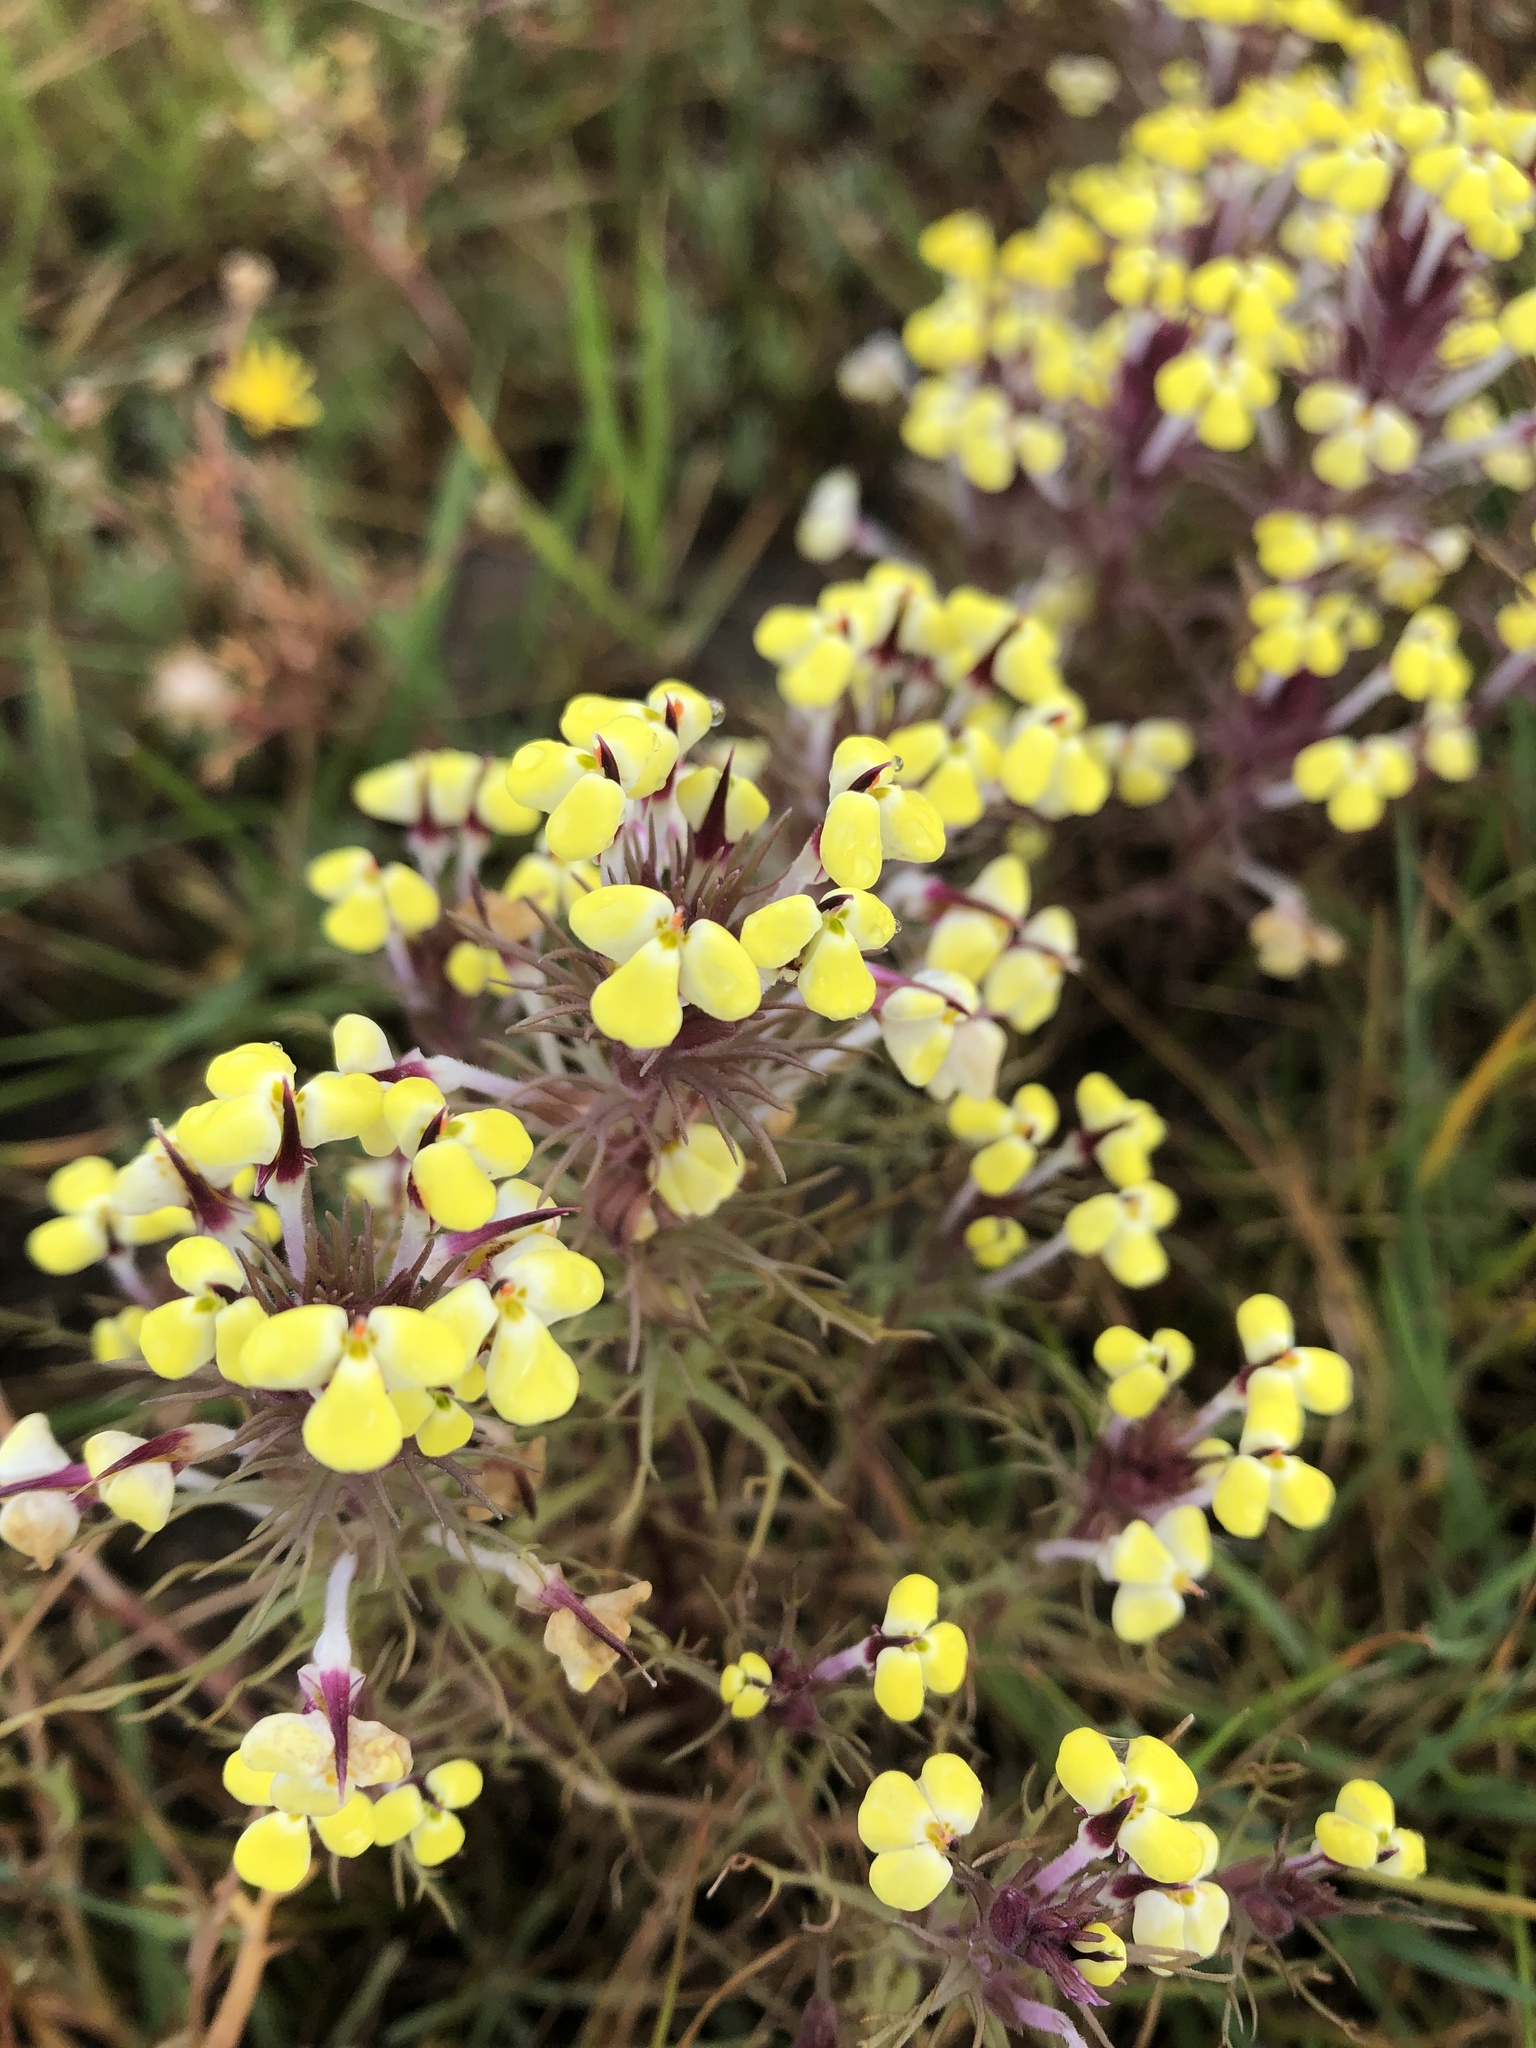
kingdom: Plantae
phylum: Tracheophyta
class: Magnoliopsida
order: Lamiales
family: Orobanchaceae
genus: Triphysaria
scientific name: Triphysaria eriantha
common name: Johnny-tuck
